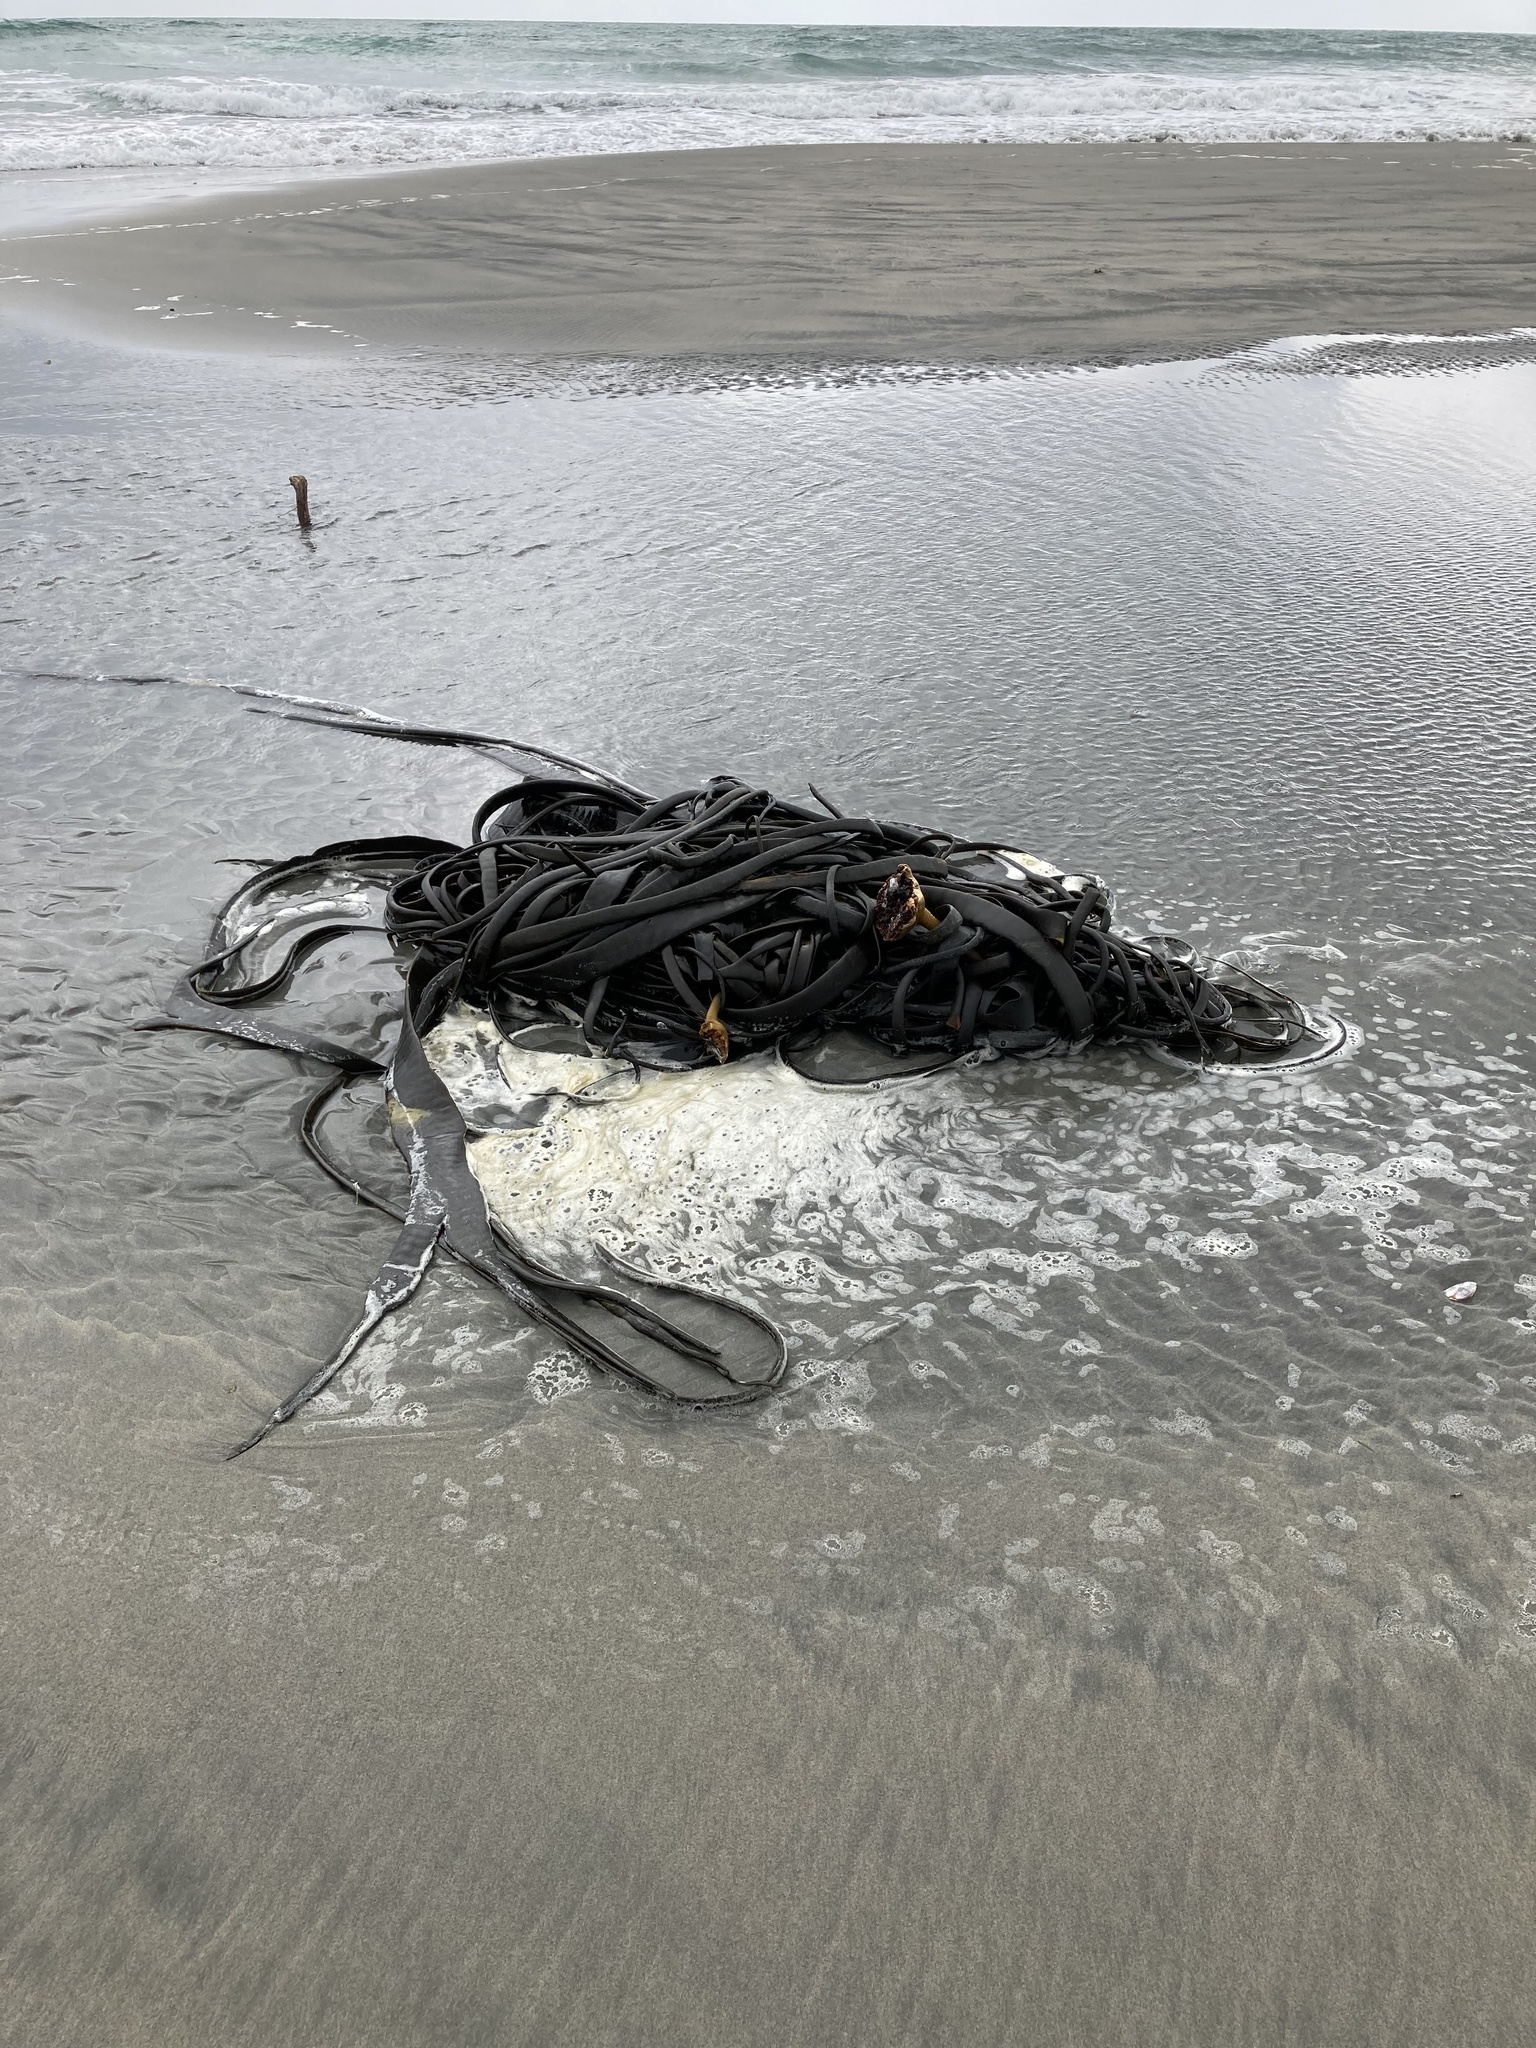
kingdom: Chromista
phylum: Ochrophyta
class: Phaeophyceae
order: Fucales
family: Durvillaeaceae
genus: Durvillaea
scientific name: Durvillaea antarctica
